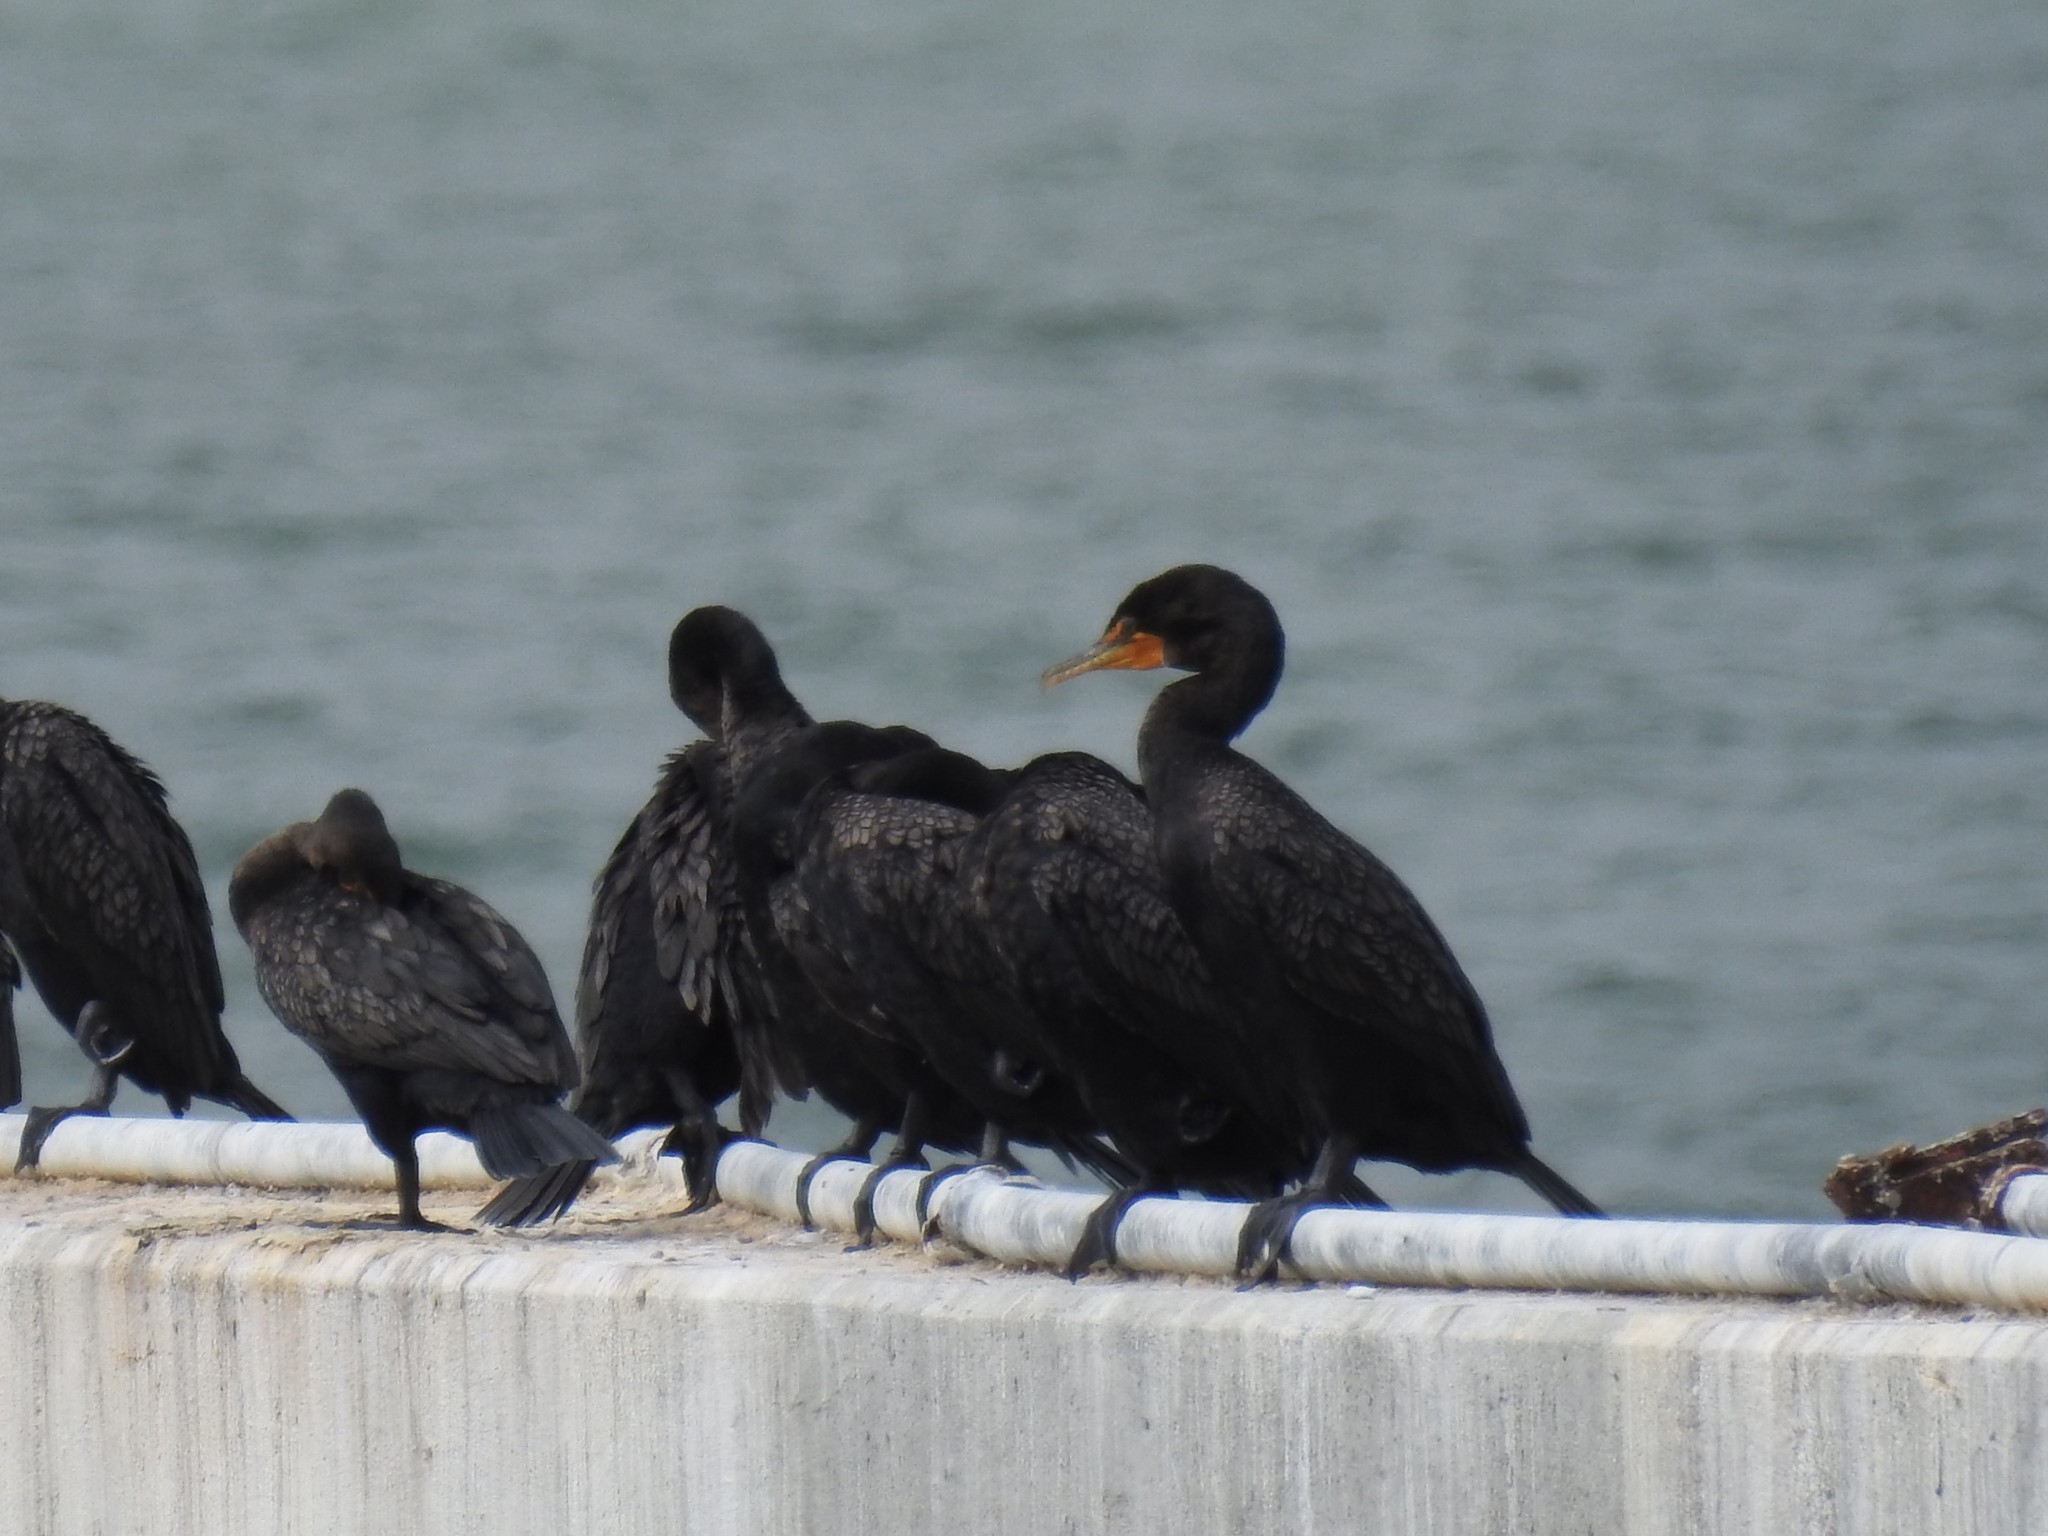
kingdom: Animalia
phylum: Chordata
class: Aves
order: Suliformes
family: Phalacrocoracidae
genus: Phalacrocorax
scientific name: Phalacrocorax auritus
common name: Double-crested cormorant
